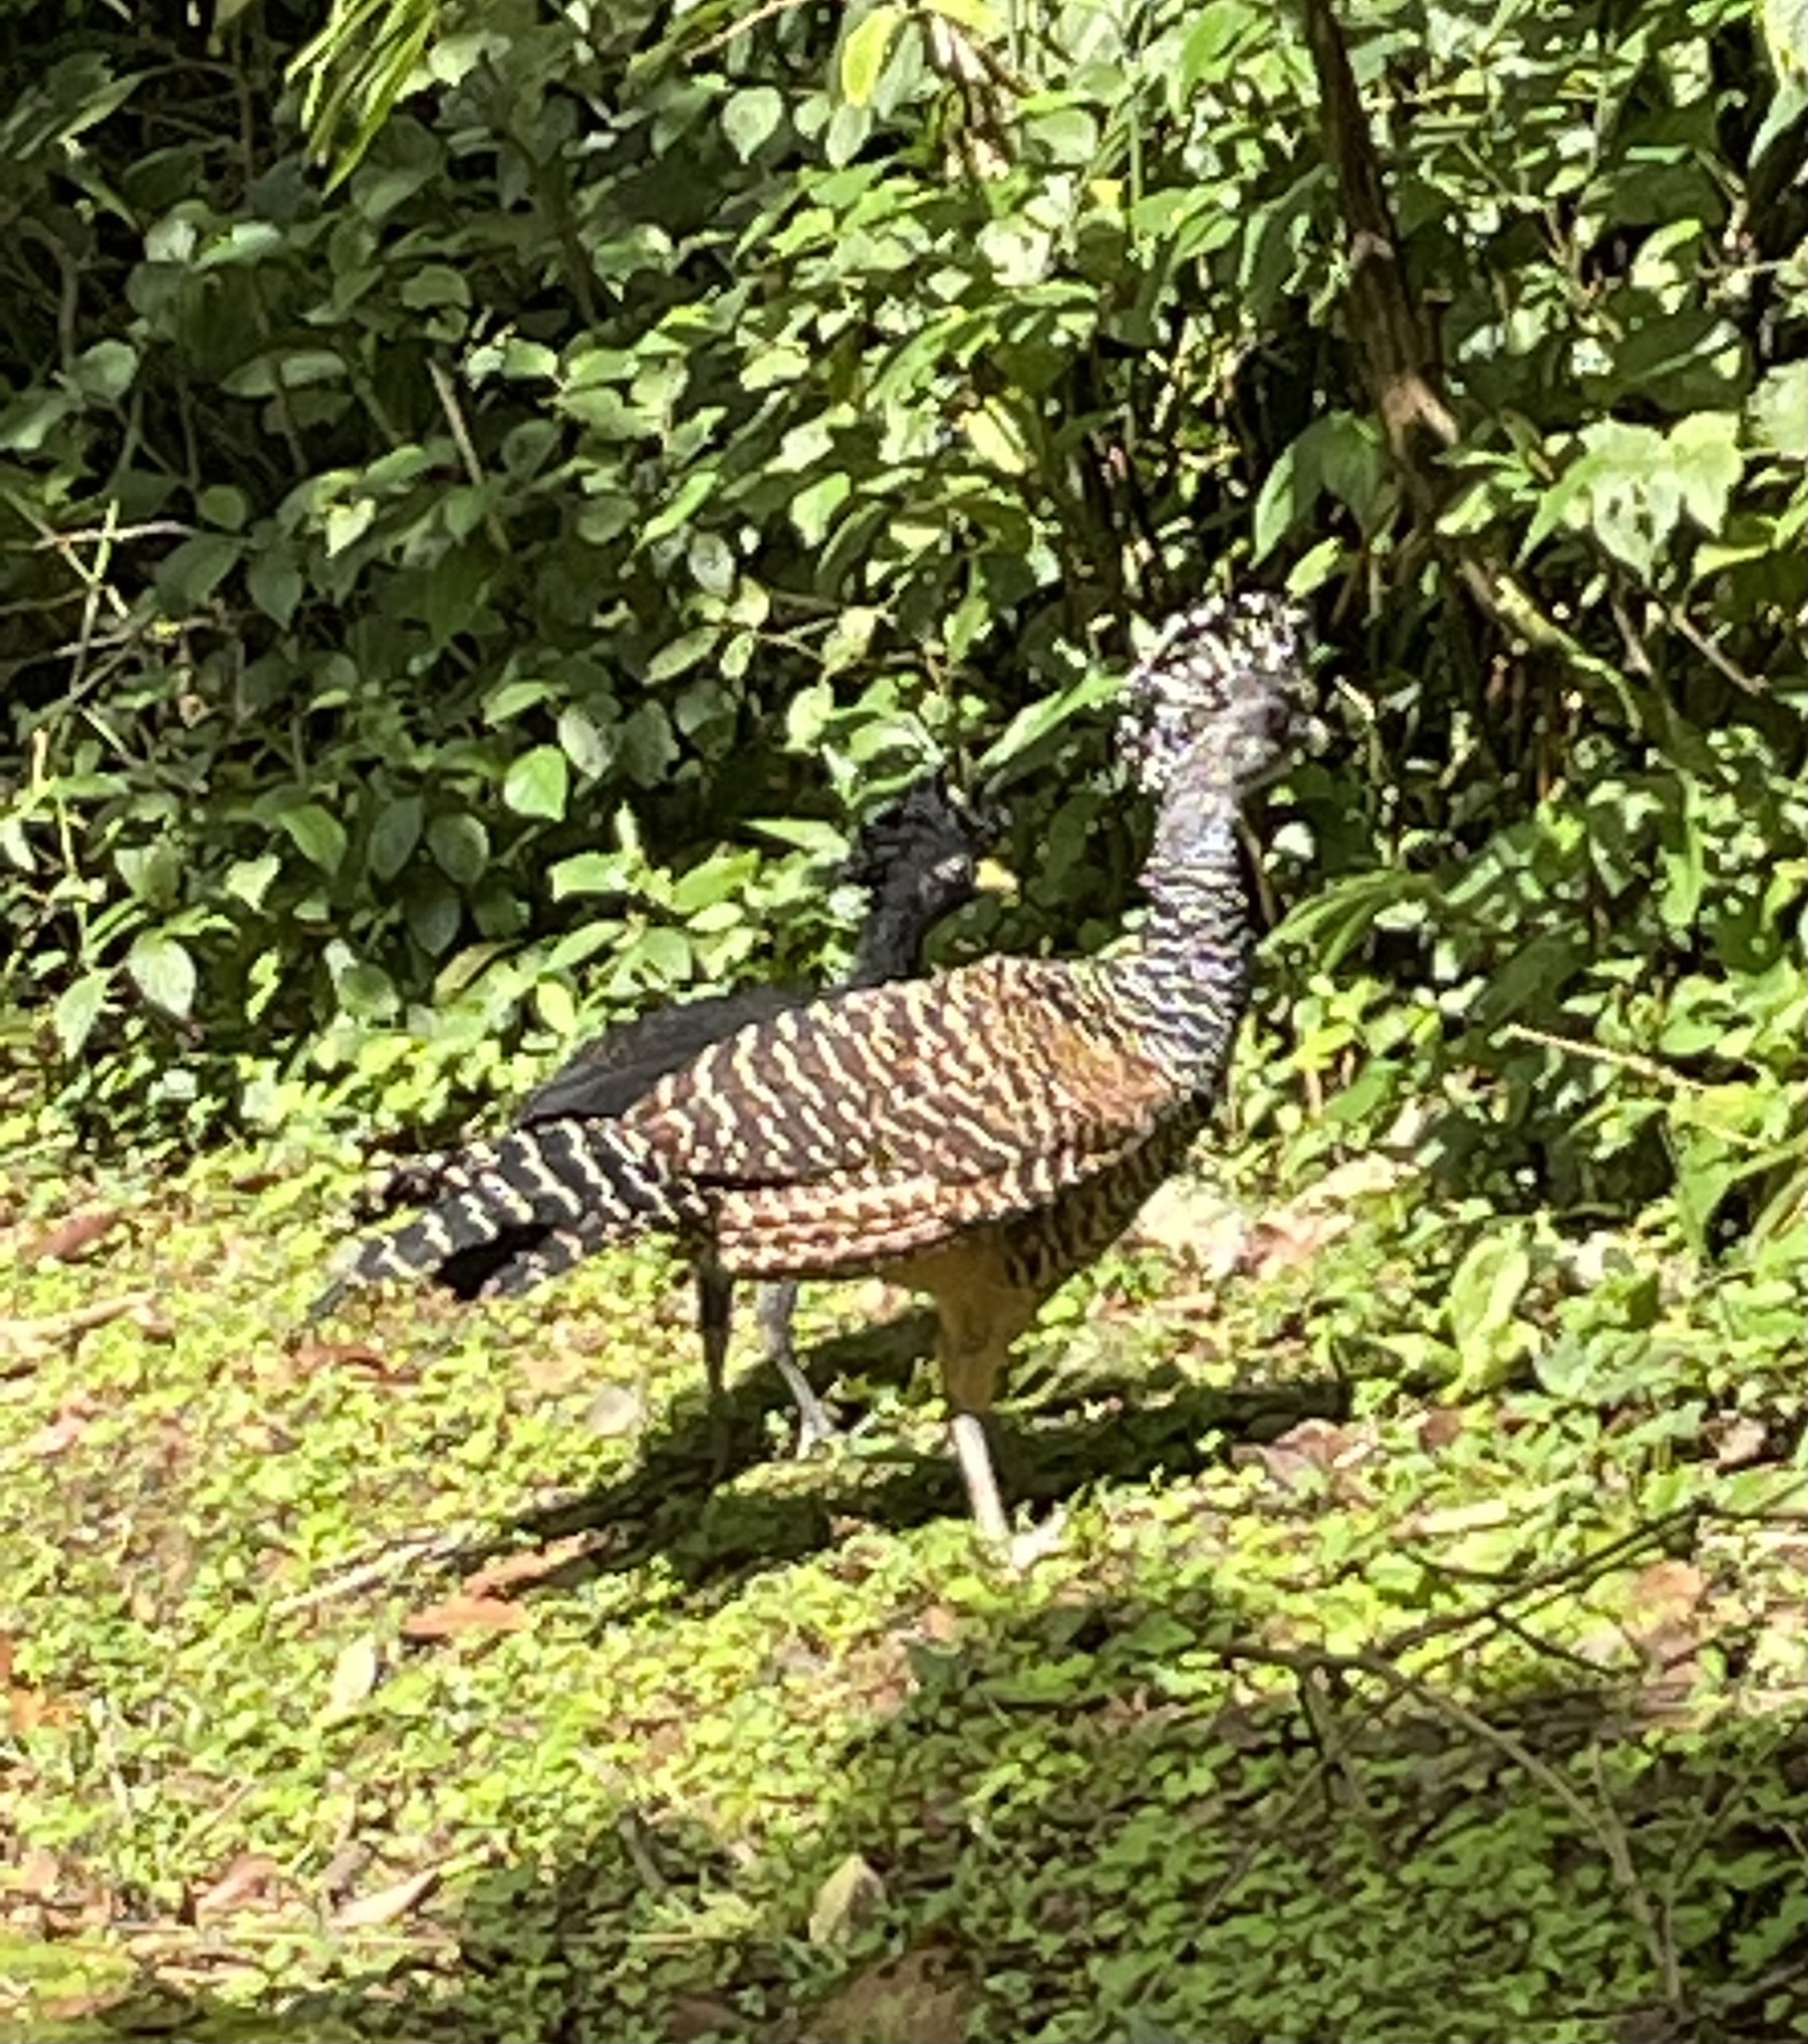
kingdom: Animalia
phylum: Chordata
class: Aves
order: Galliformes
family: Cracidae
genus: Crax
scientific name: Crax rubra
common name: Great curassow
